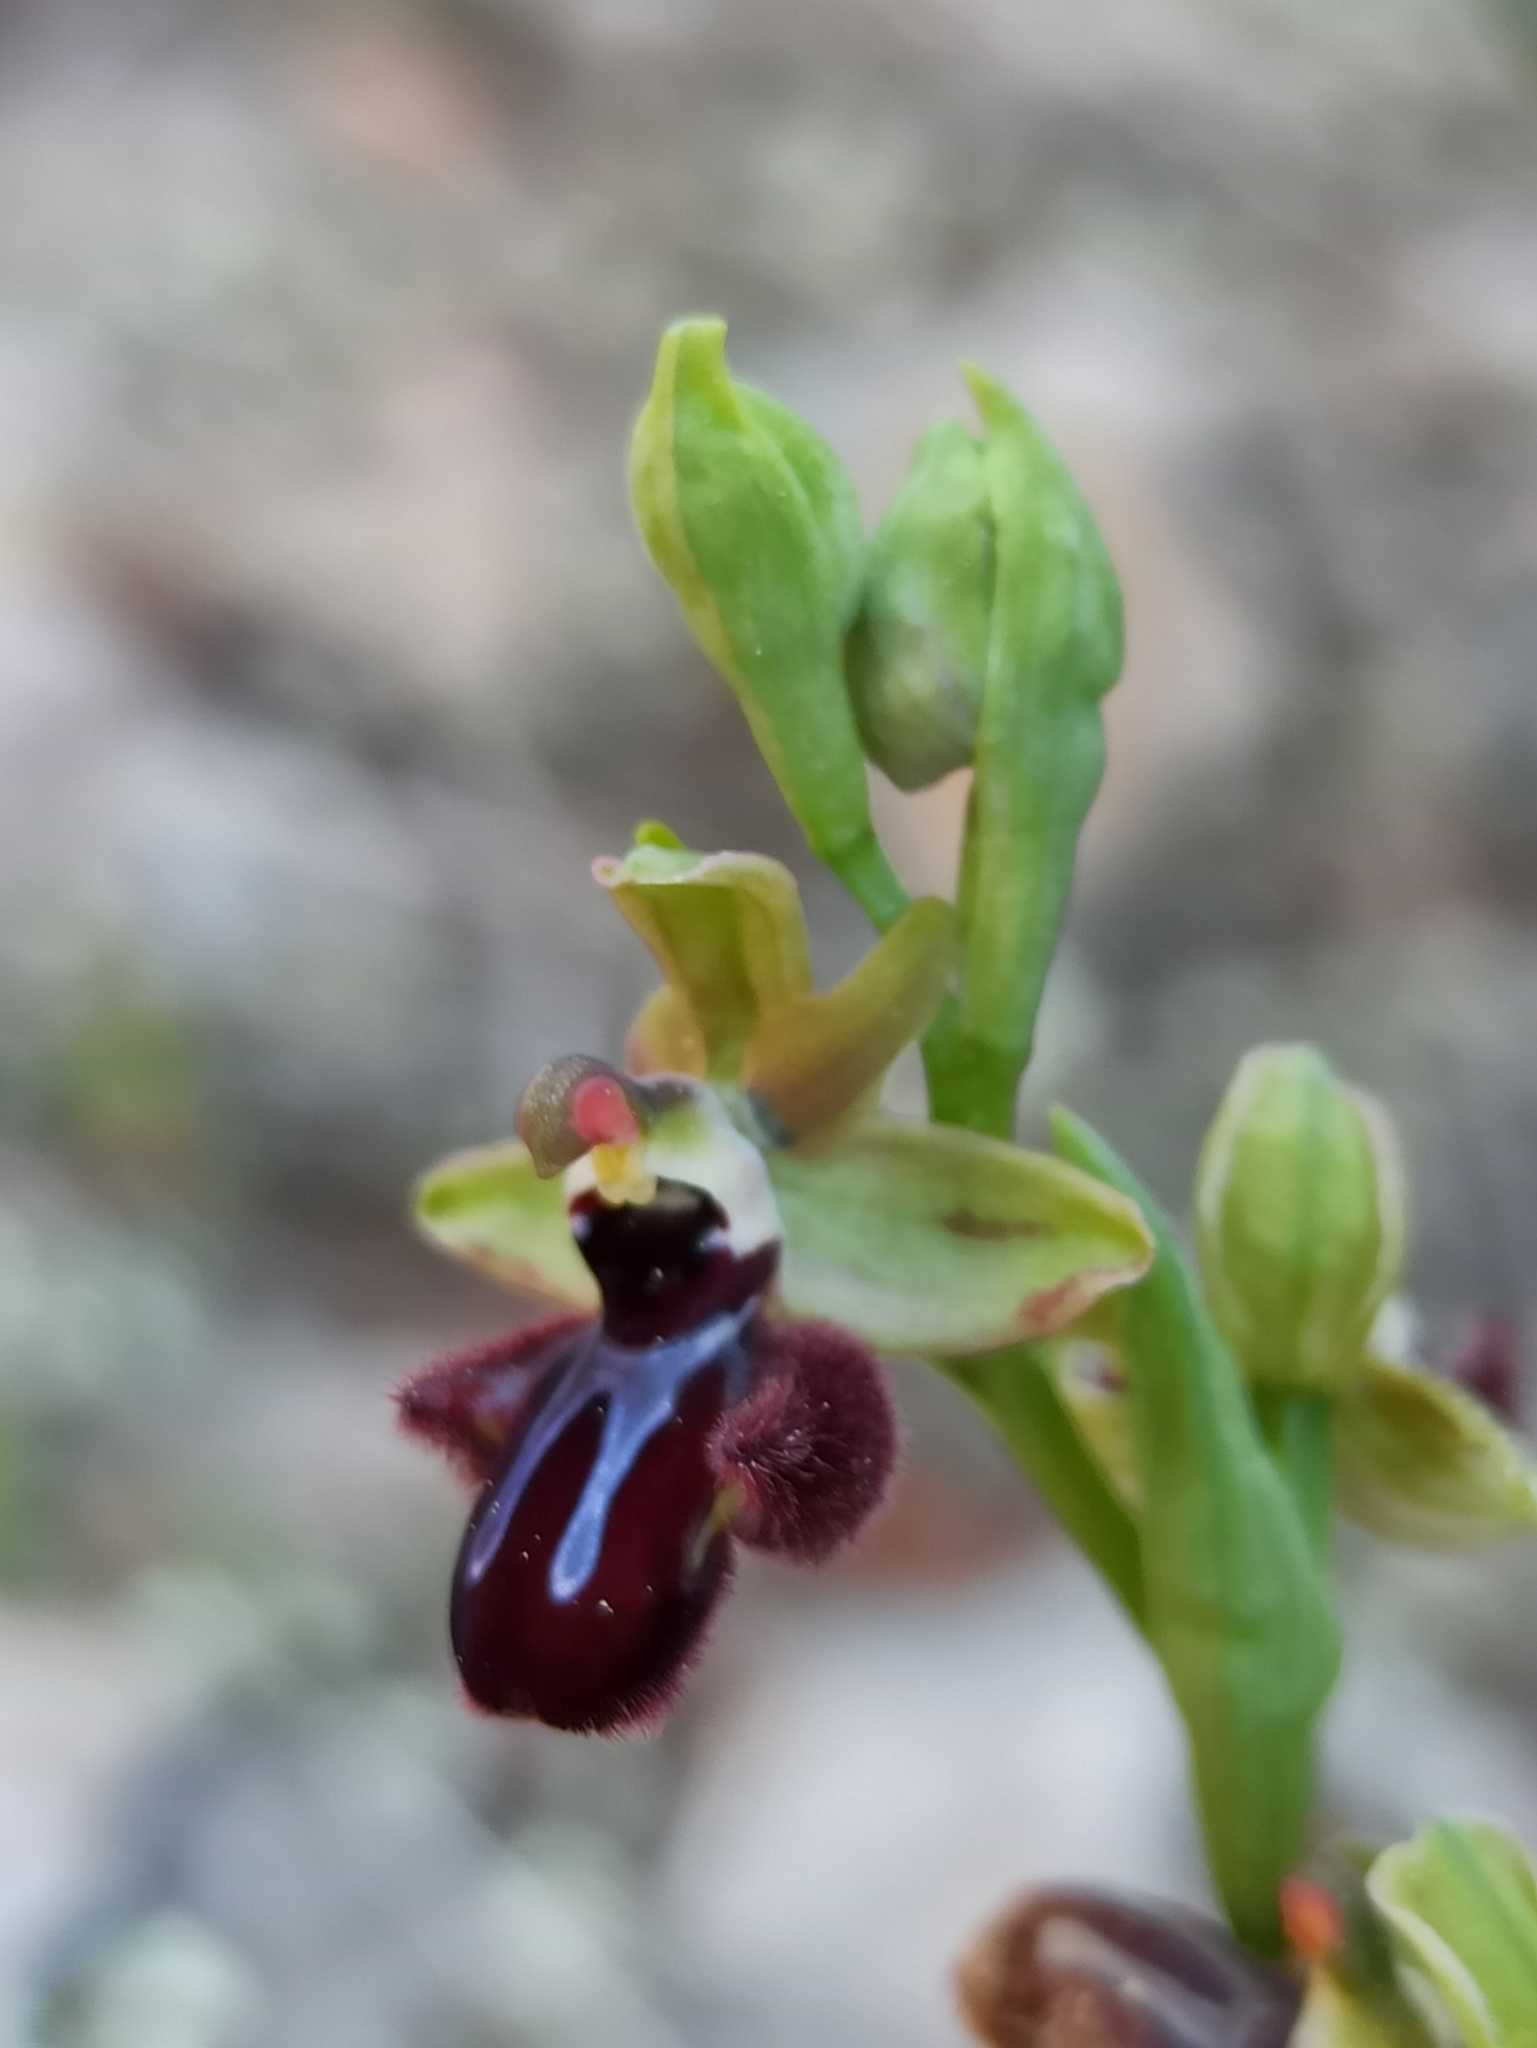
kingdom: Plantae
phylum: Tracheophyta
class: Liliopsida
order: Asparagales
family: Orchidaceae
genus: Ophrys
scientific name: Ophrys sphegodes
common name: Early spider-orchid
